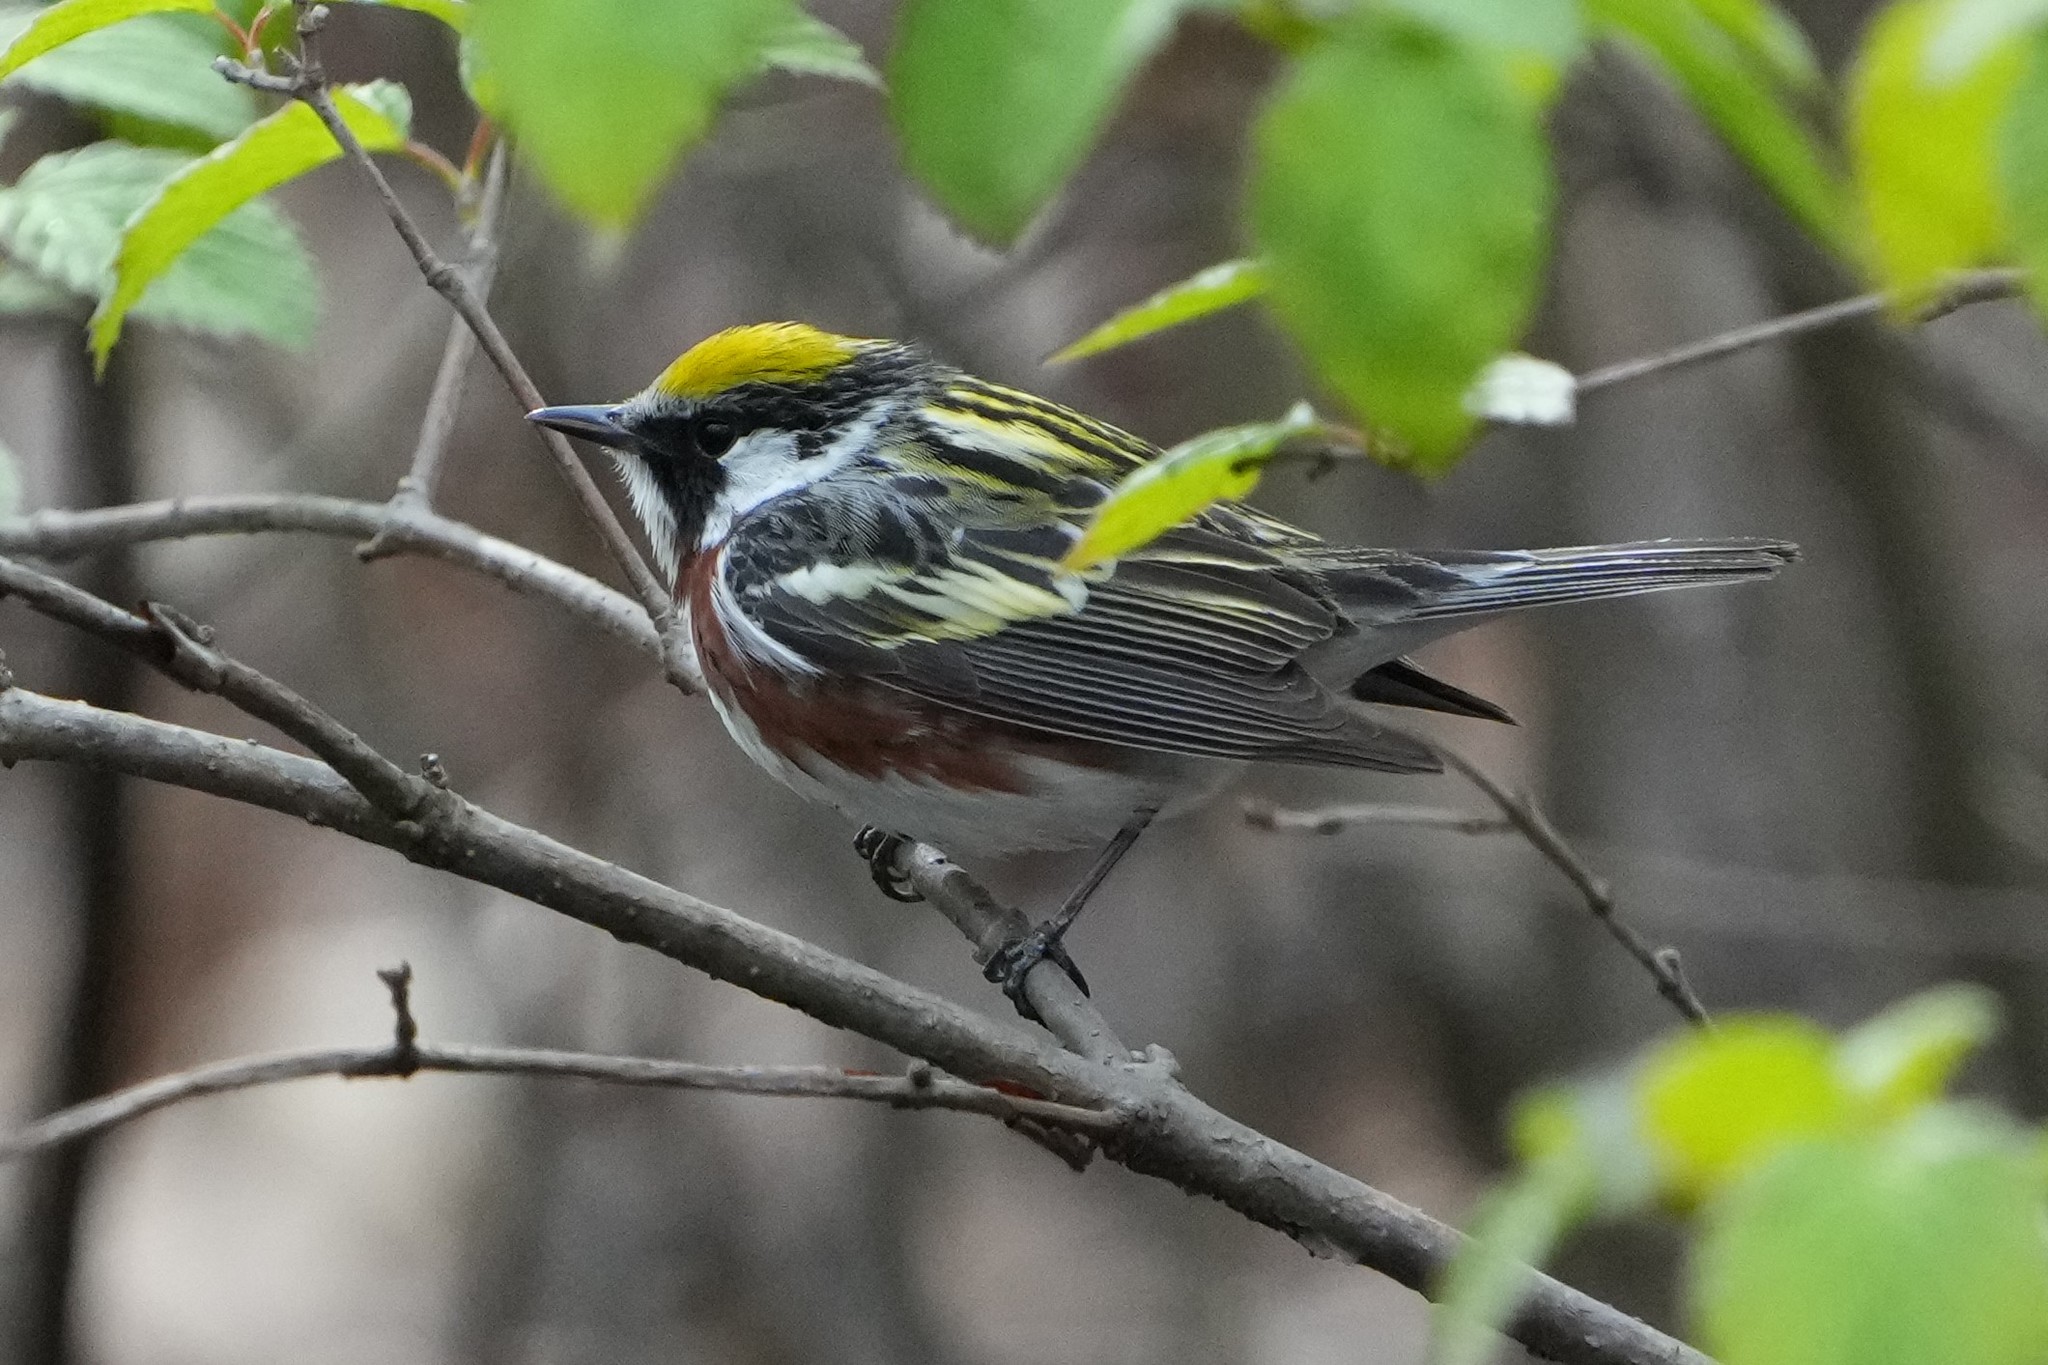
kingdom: Animalia
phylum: Chordata
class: Aves
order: Passeriformes
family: Parulidae
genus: Setophaga
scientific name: Setophaga pensylvanica
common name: Chestnut-sided warbler
